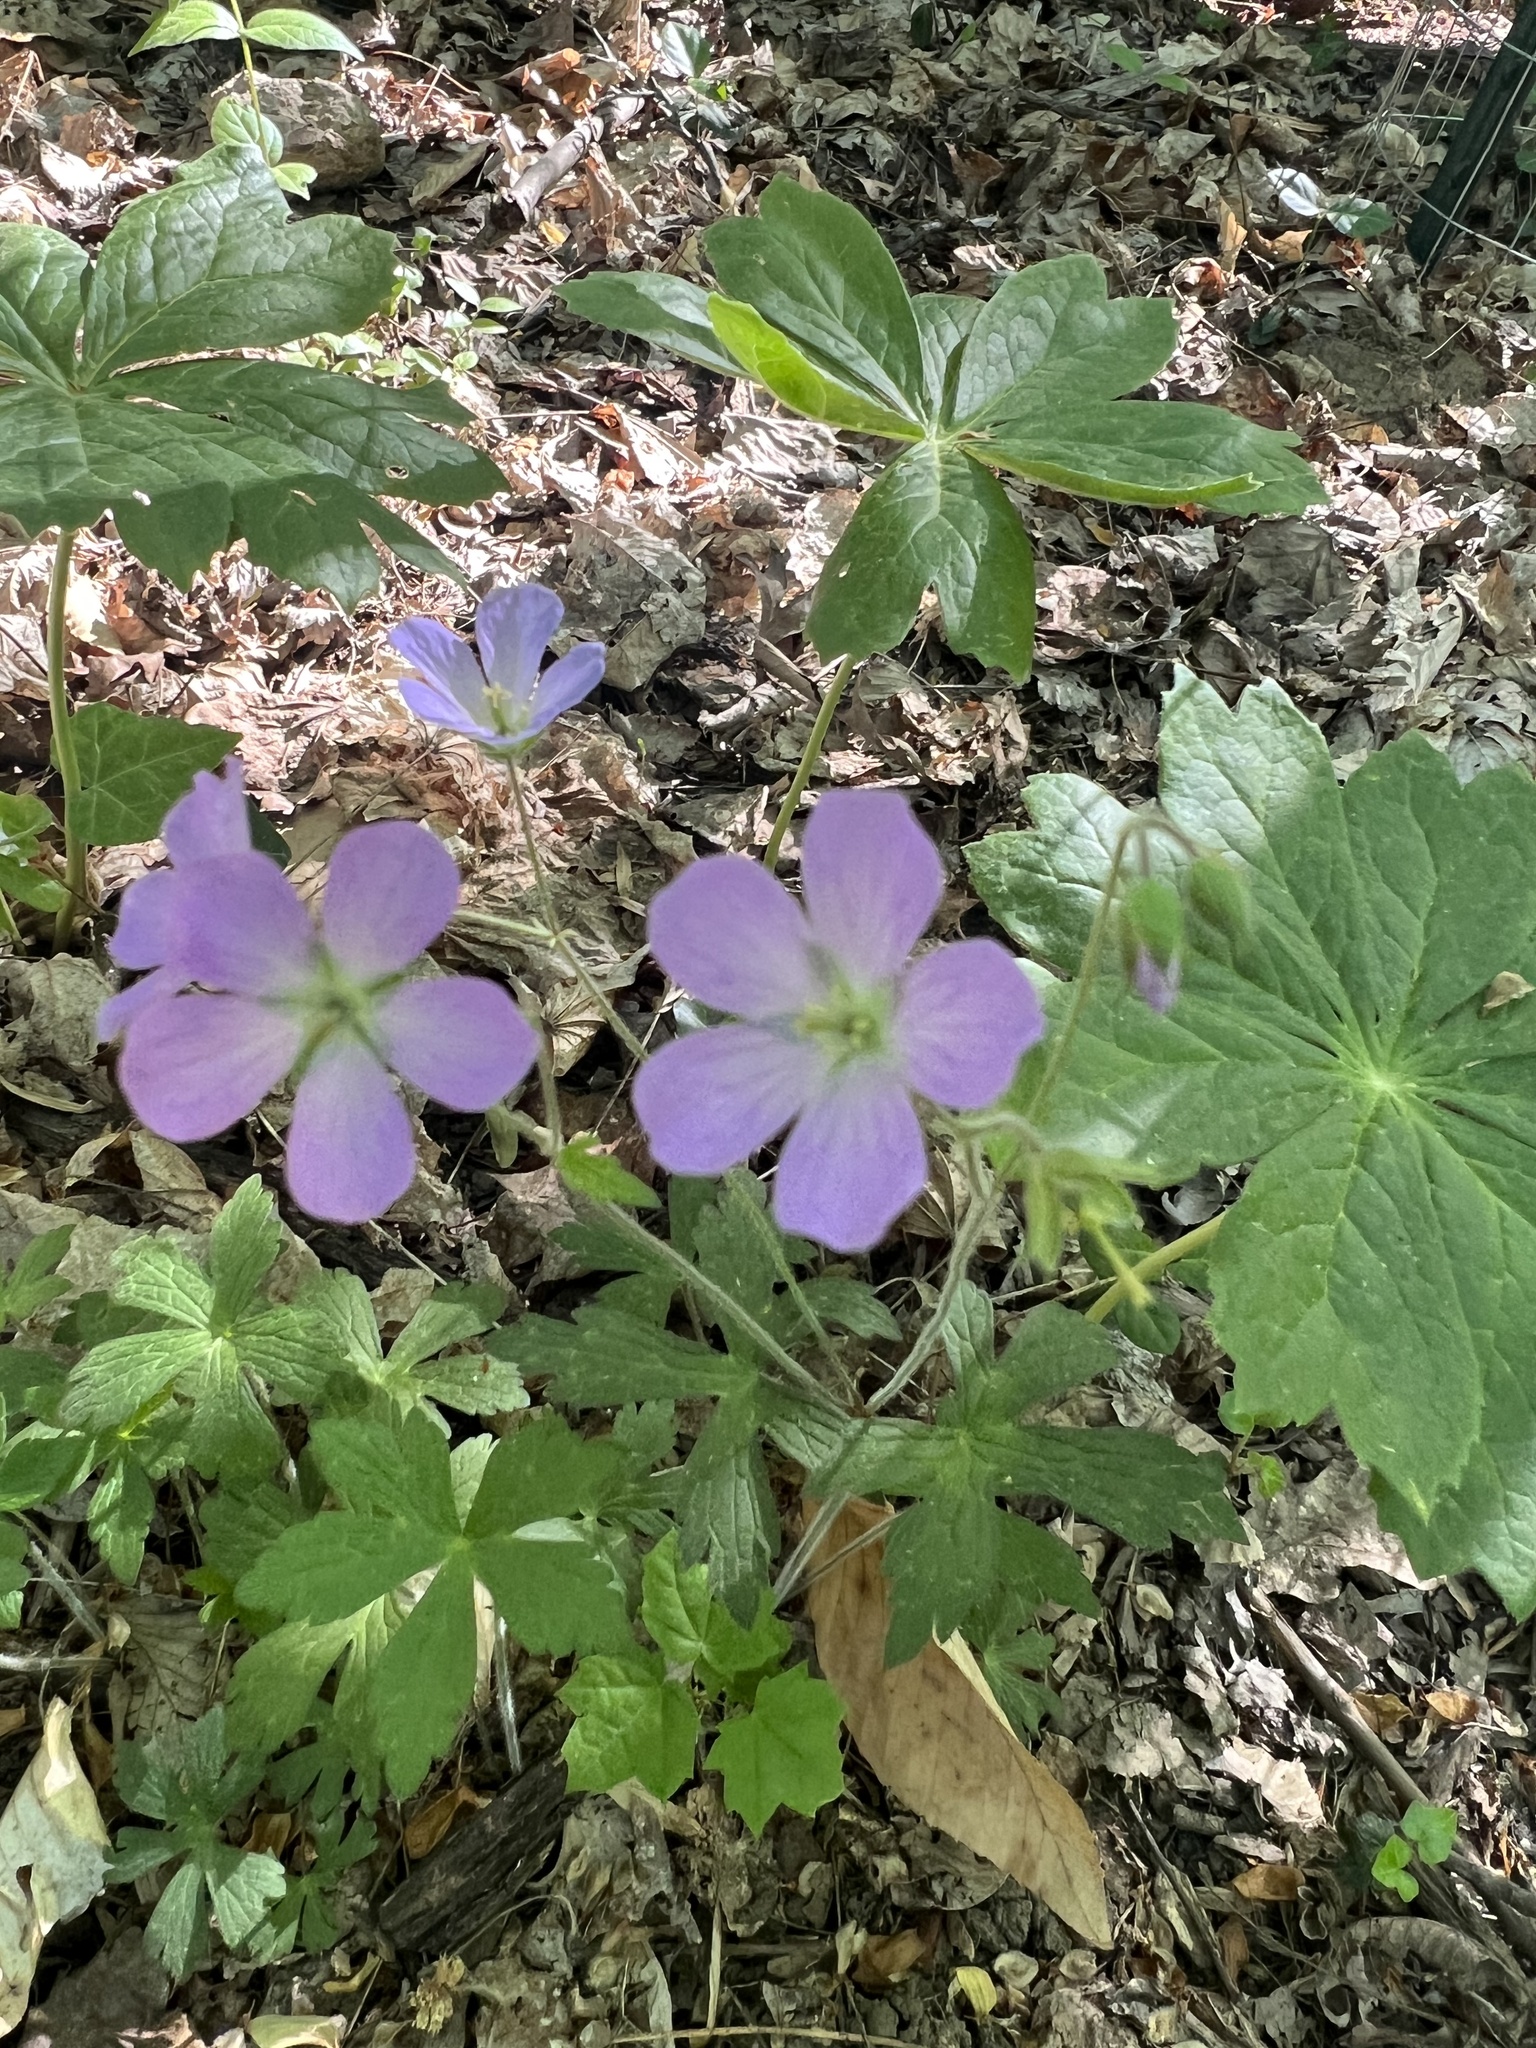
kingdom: Plantae
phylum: Tracheophyta
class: Magnoliopsida
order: Geraniales
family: Geraniaceae
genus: Geranium
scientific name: Geranium maculatum
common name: Spotted geranium
